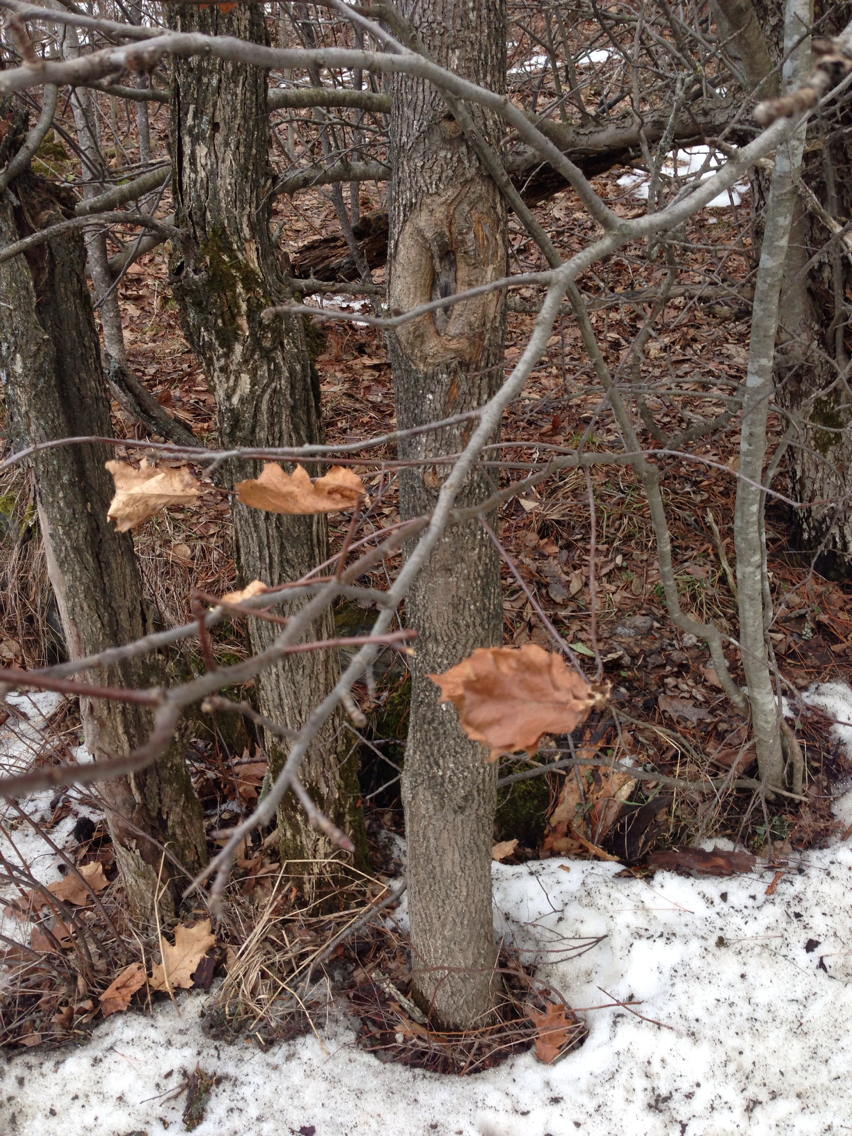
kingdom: Plantae
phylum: Tracheophyta
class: Magnoliopsida
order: Fagales
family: Fagaceae
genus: Quercus
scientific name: Quercus rubra
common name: Red oak
